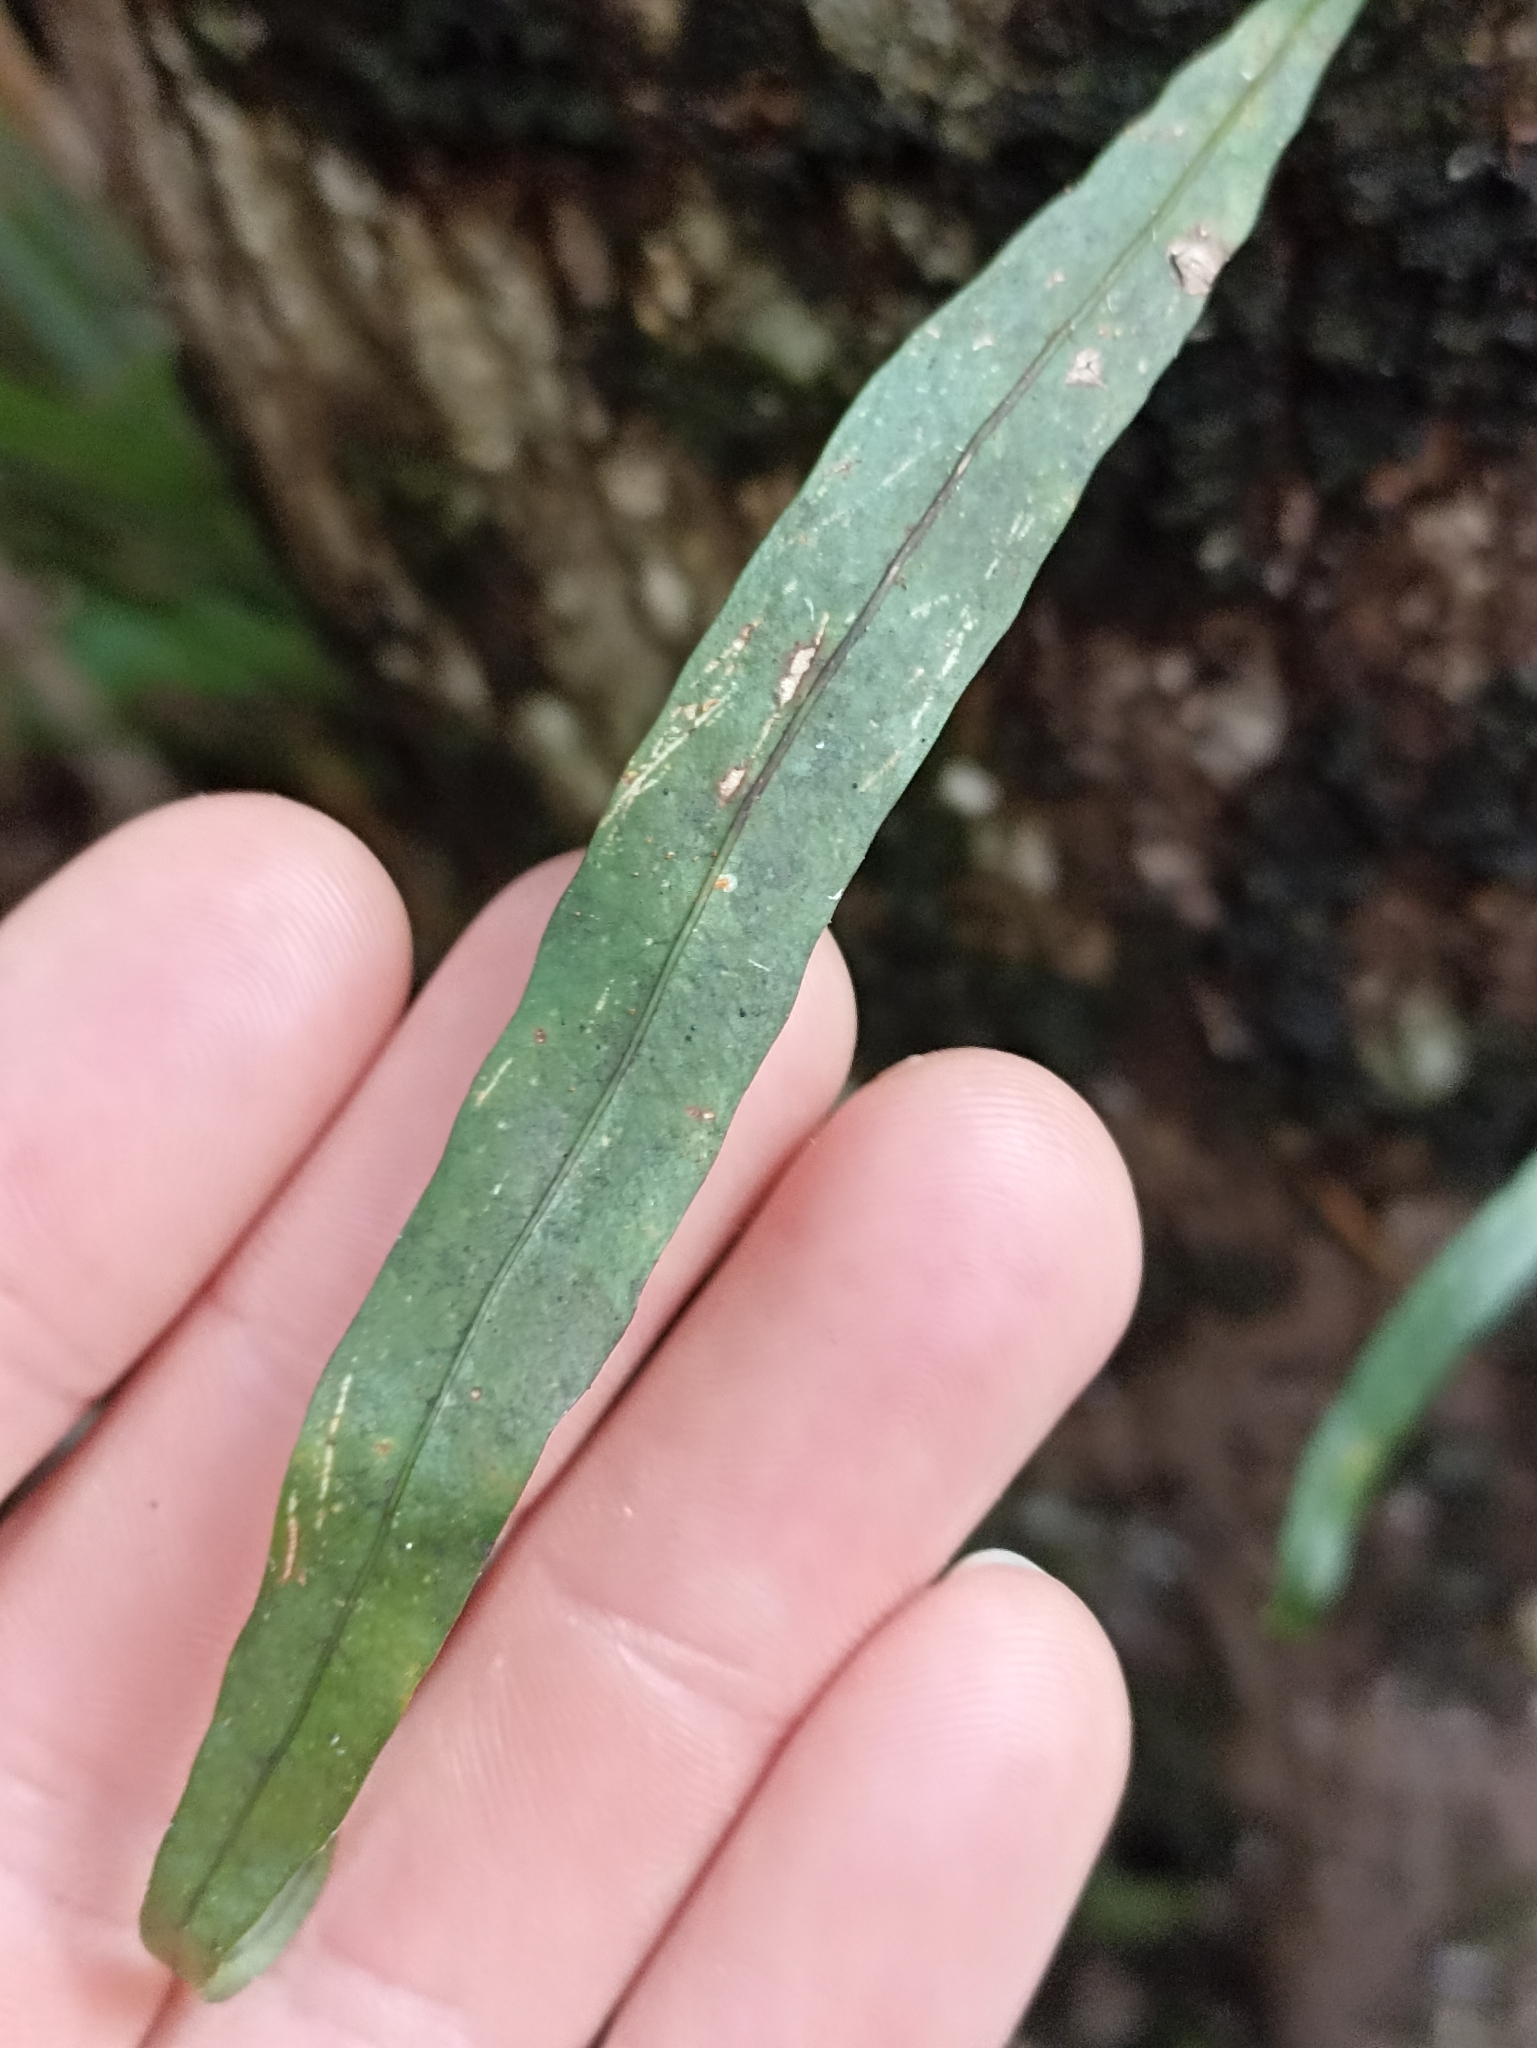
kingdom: Plantae
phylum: Tracheophyta
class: Polypodiopsida
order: Polypodiales
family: Polypodiaceae
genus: Lecanopteris
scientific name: Lecanopteris scandens
